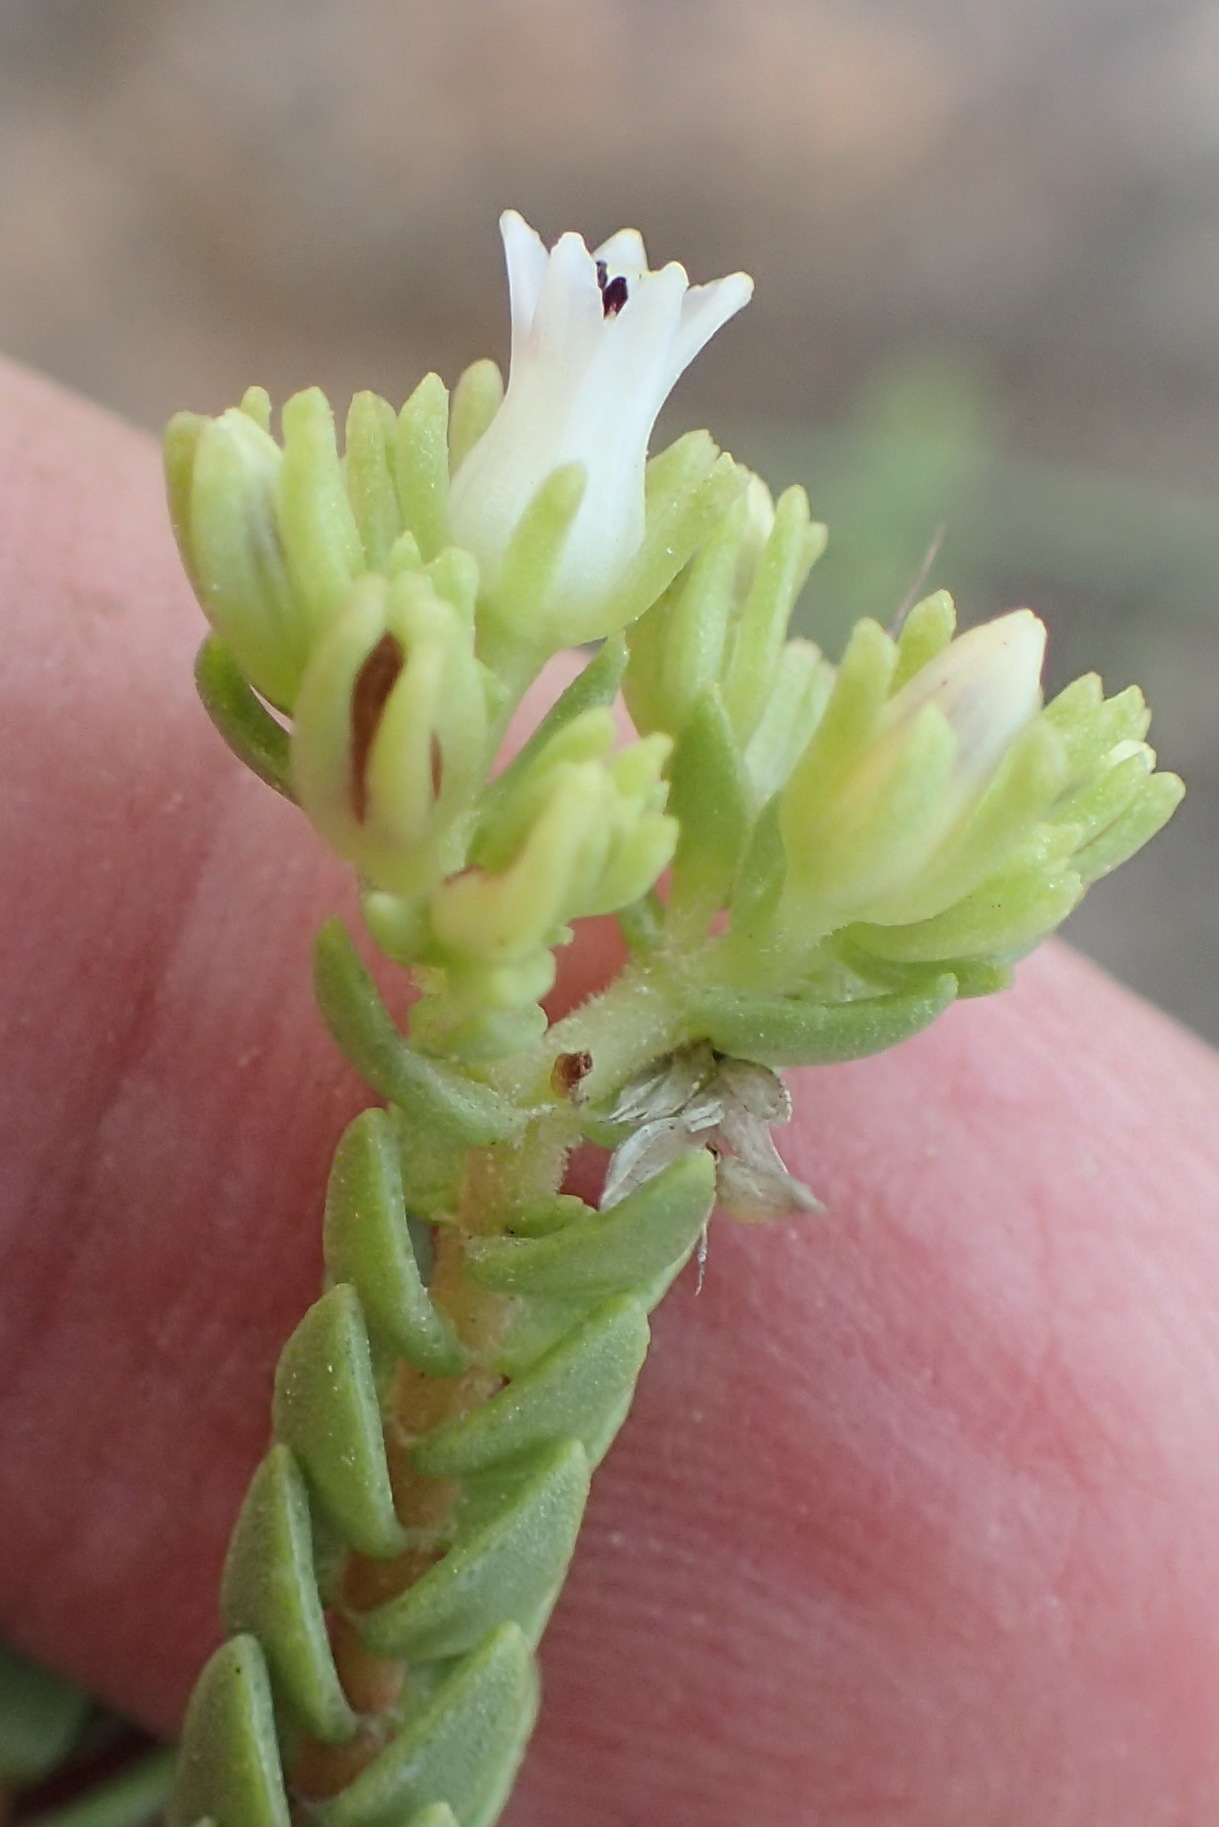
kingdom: Plantae
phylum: Tracheophyta
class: Magnoliopsida
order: Saxifragales
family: Crassulaceae
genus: Crassula
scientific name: Crassula ericoides
